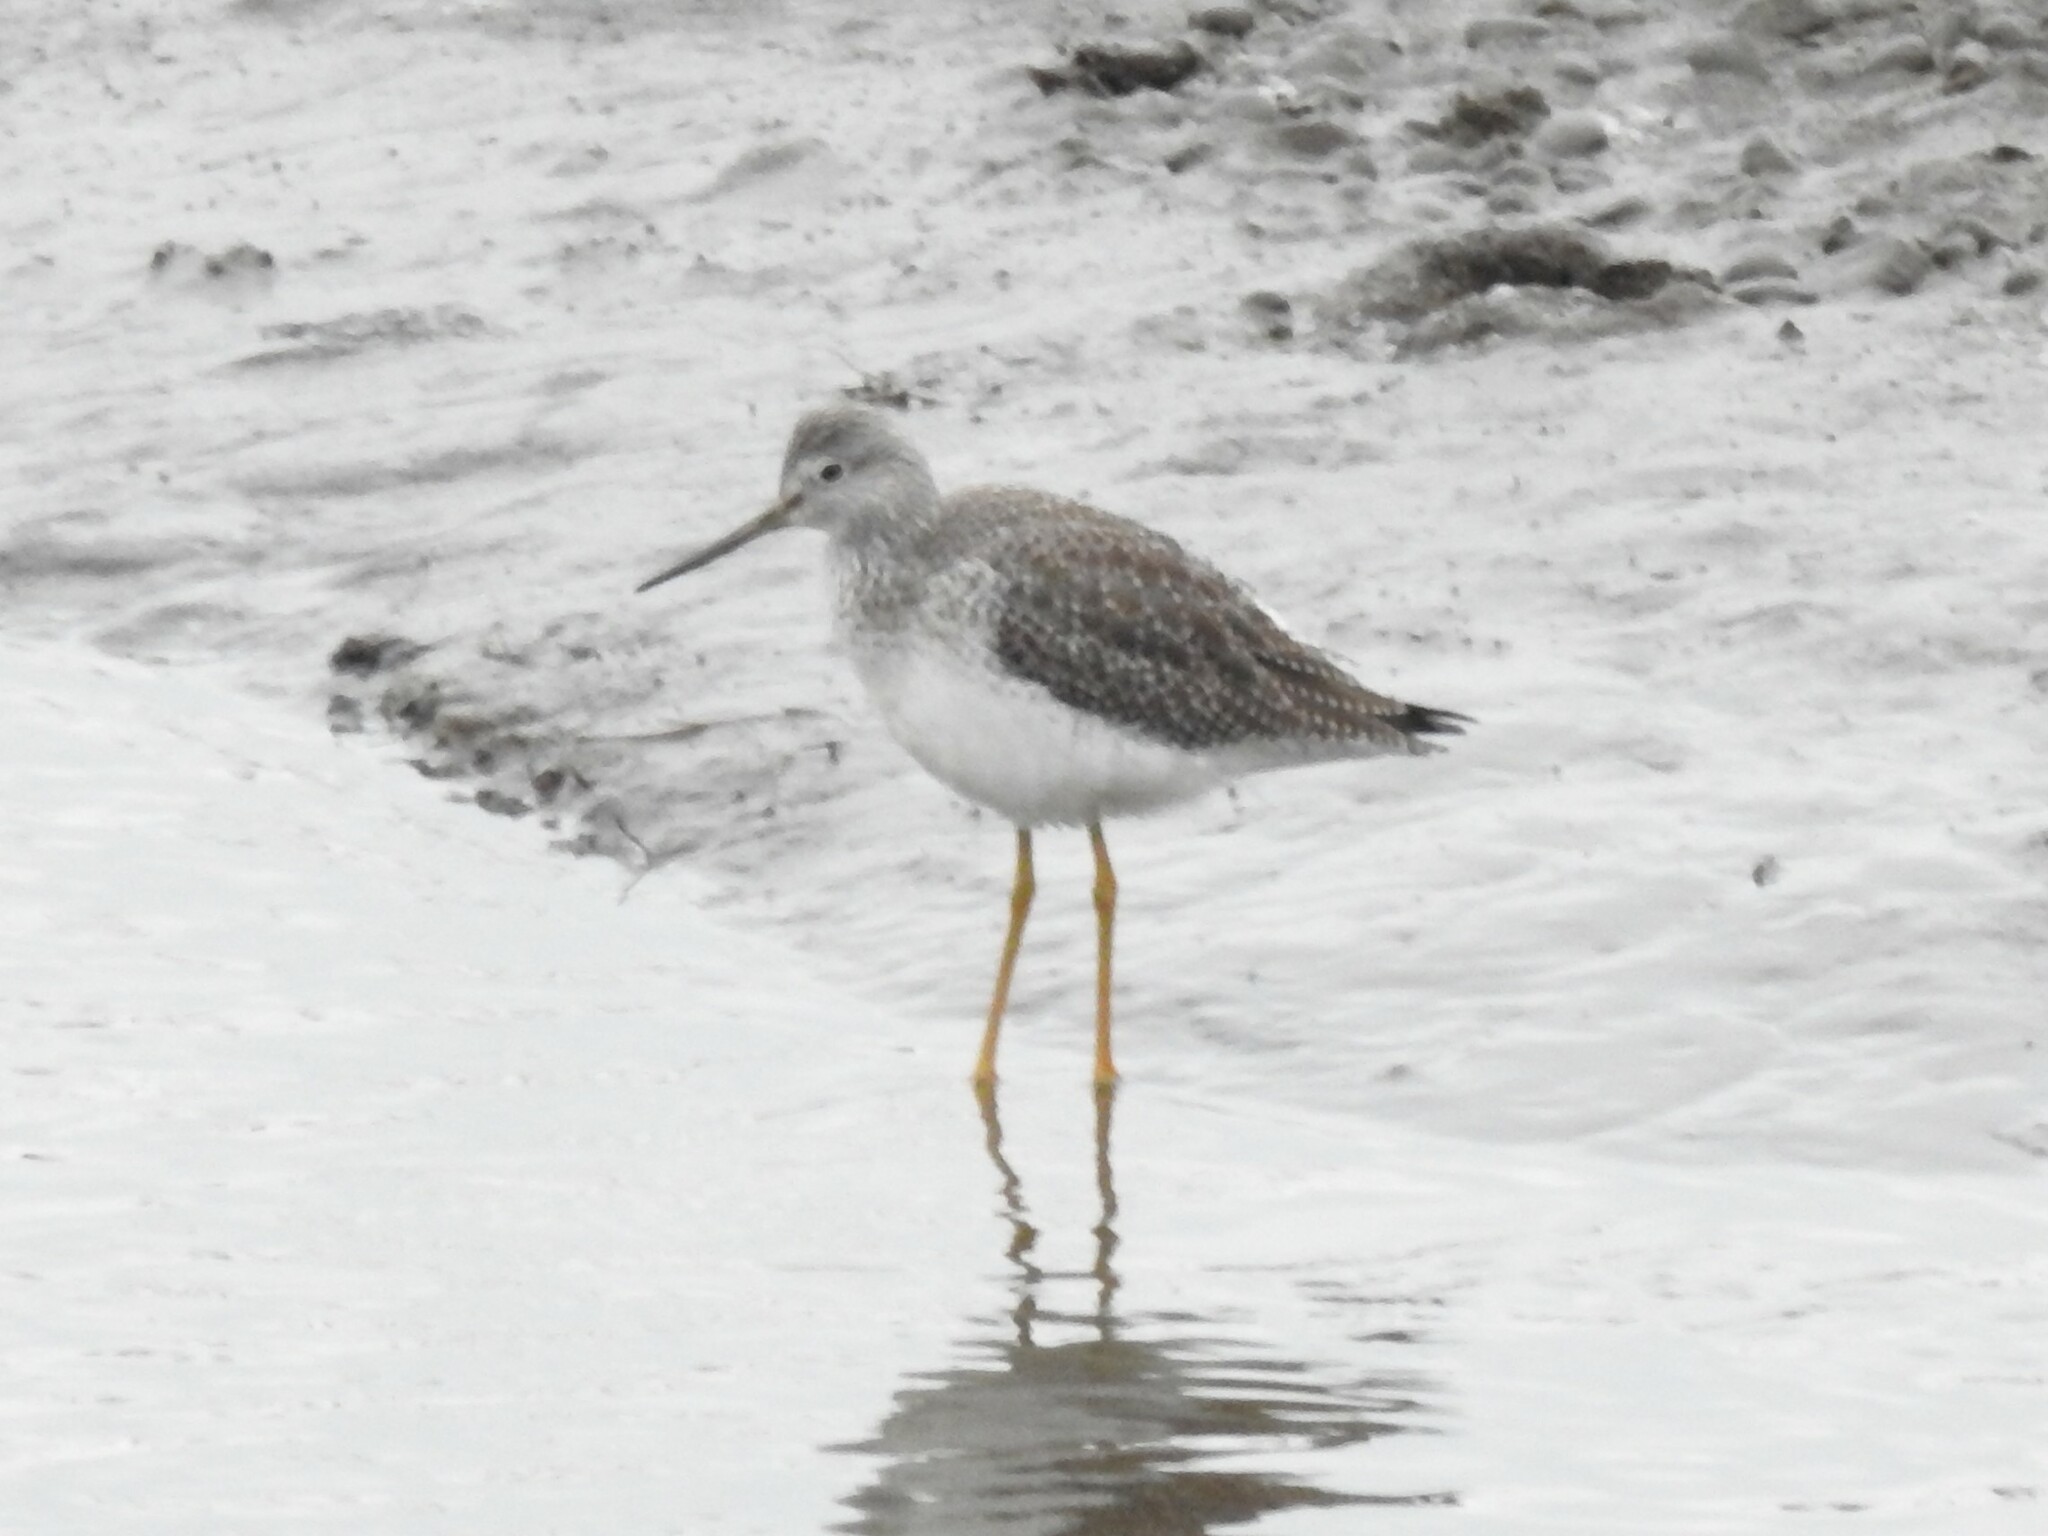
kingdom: Animalia
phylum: Chordata
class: Aves
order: Charadriiformes
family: Scolopacidae
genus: Tringa
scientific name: Tringa melanoleuca
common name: Greater yellowlegs
